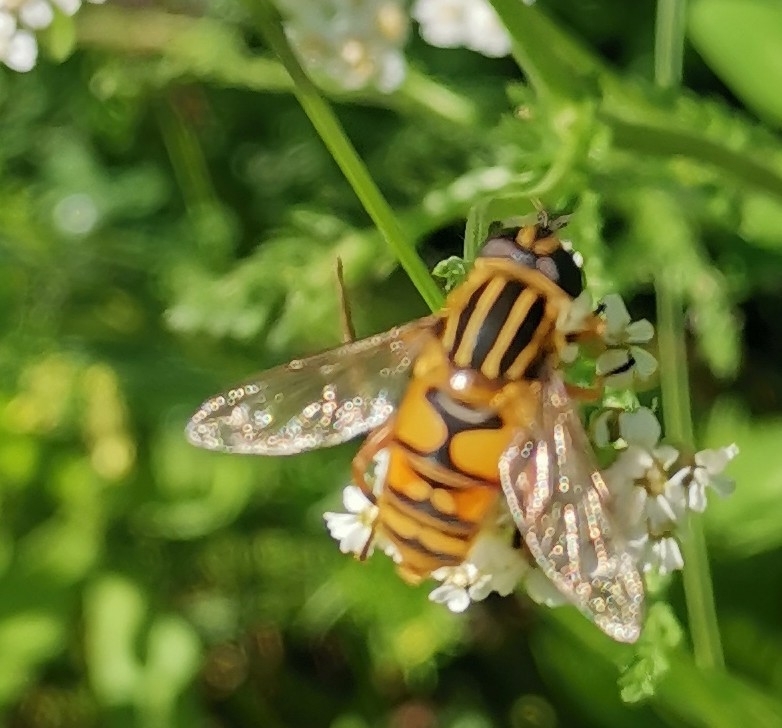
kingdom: Animalia
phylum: Arthropoda
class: Insecta
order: Diptera
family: Syrphidae
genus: Helophilus
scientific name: Helophilus pendulus
